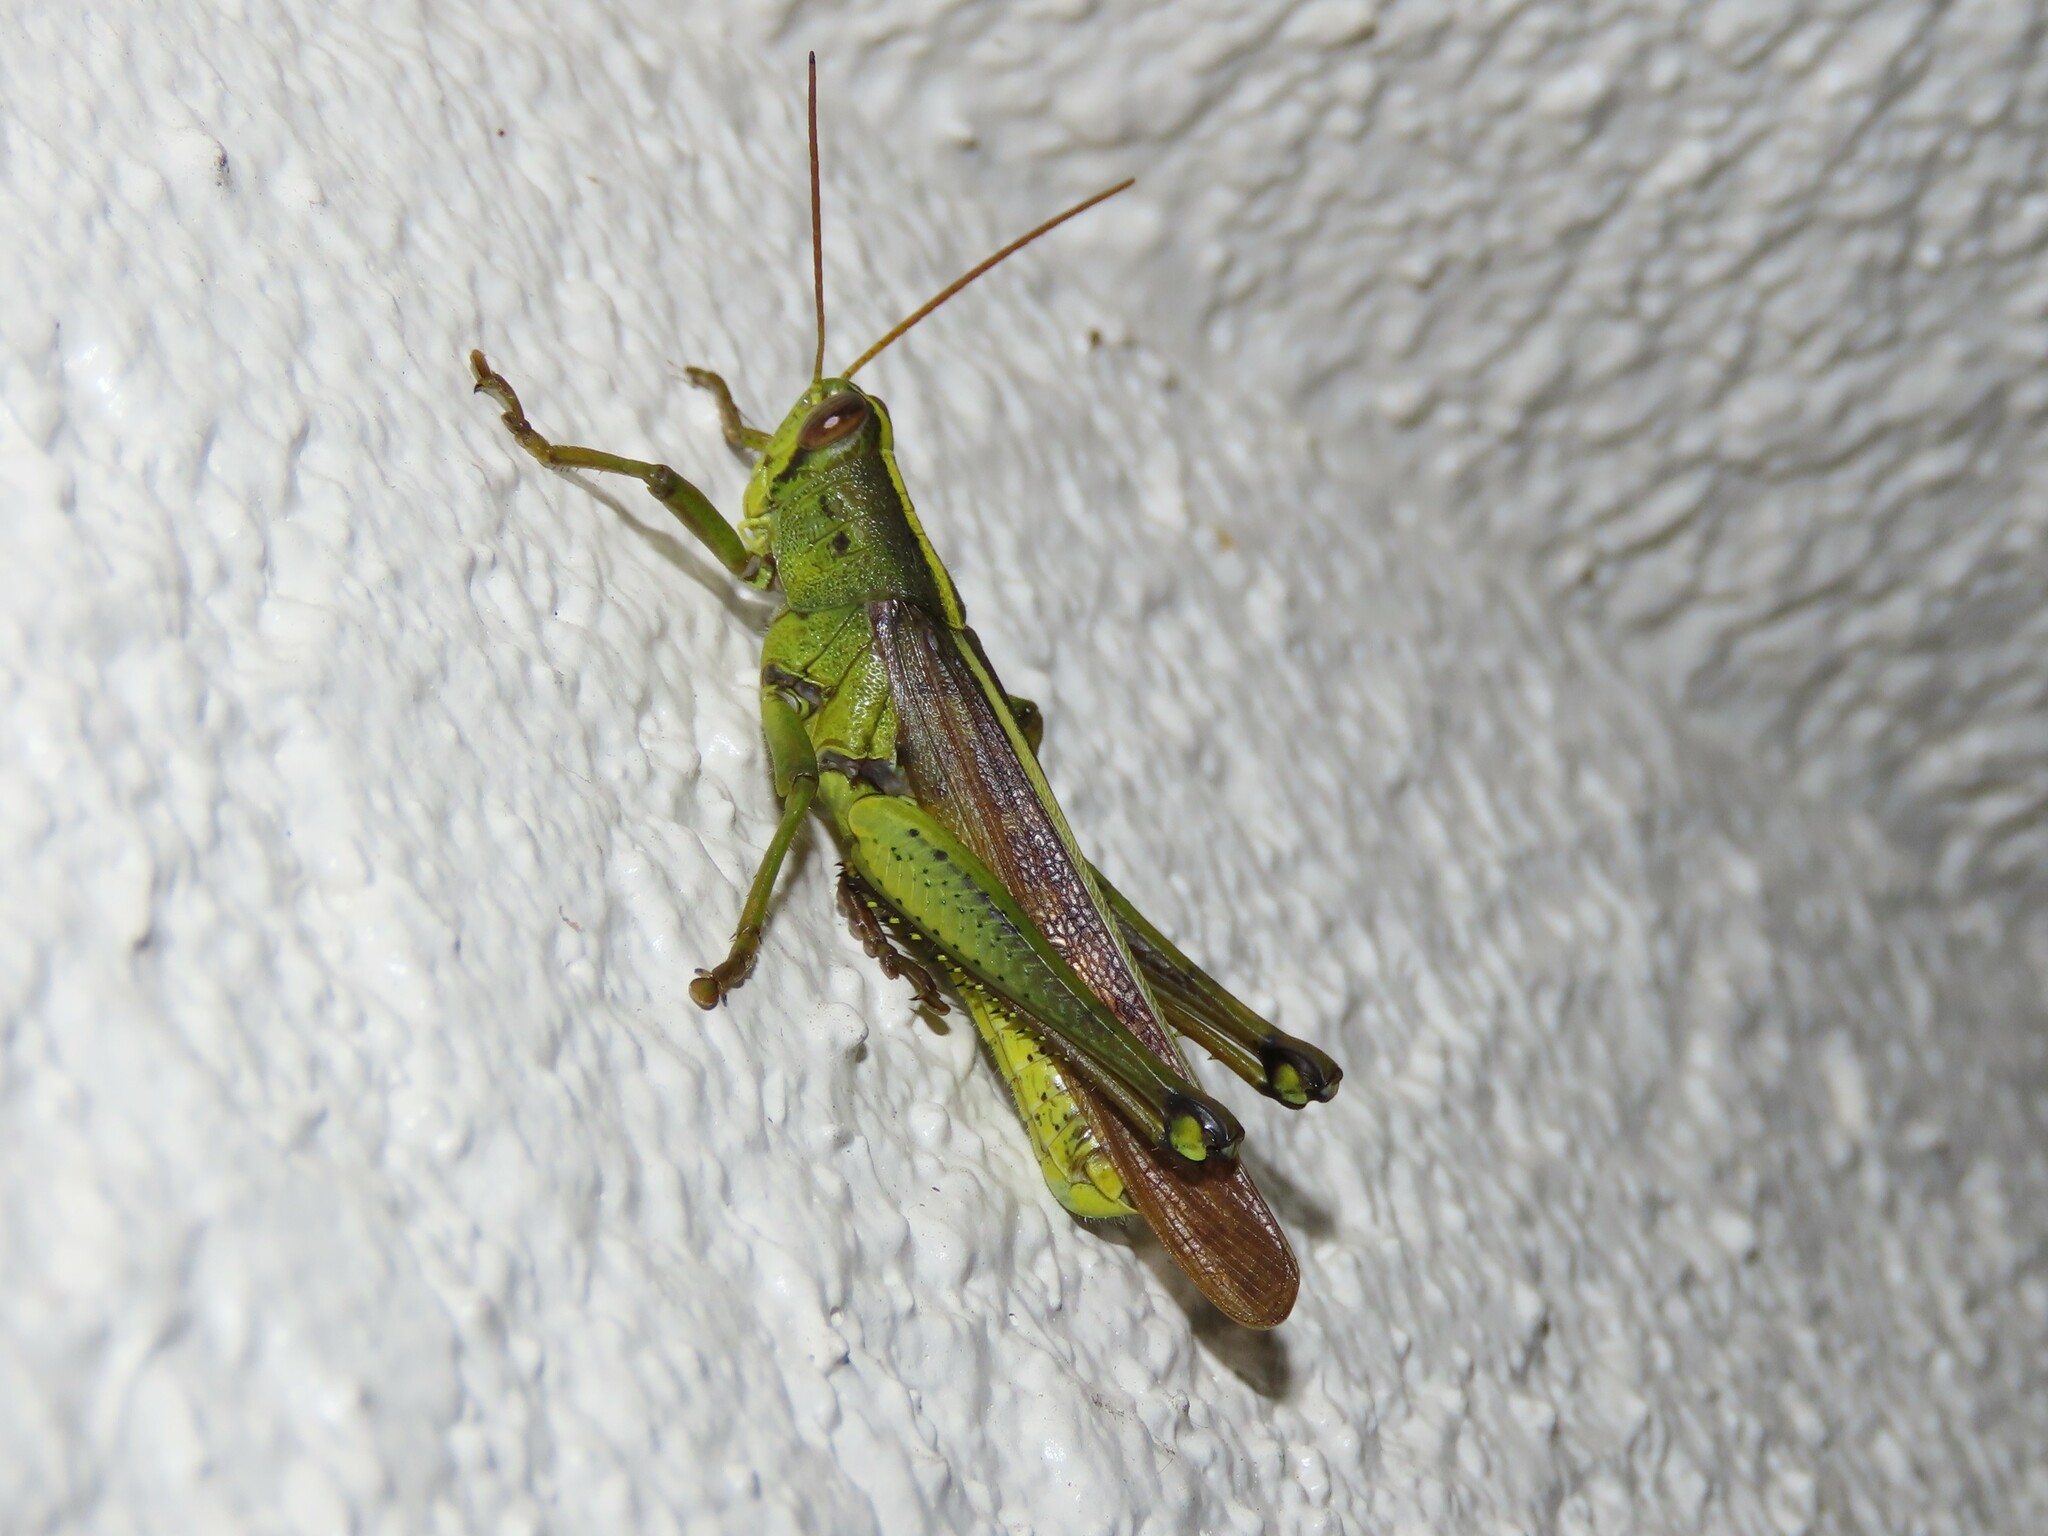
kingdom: Animalia
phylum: Arthropoda
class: Insecta
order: Orthoptera
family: Acrididae
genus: Schistocerca
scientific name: Schistocerca alutacea
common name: Leather-colored bird locust
